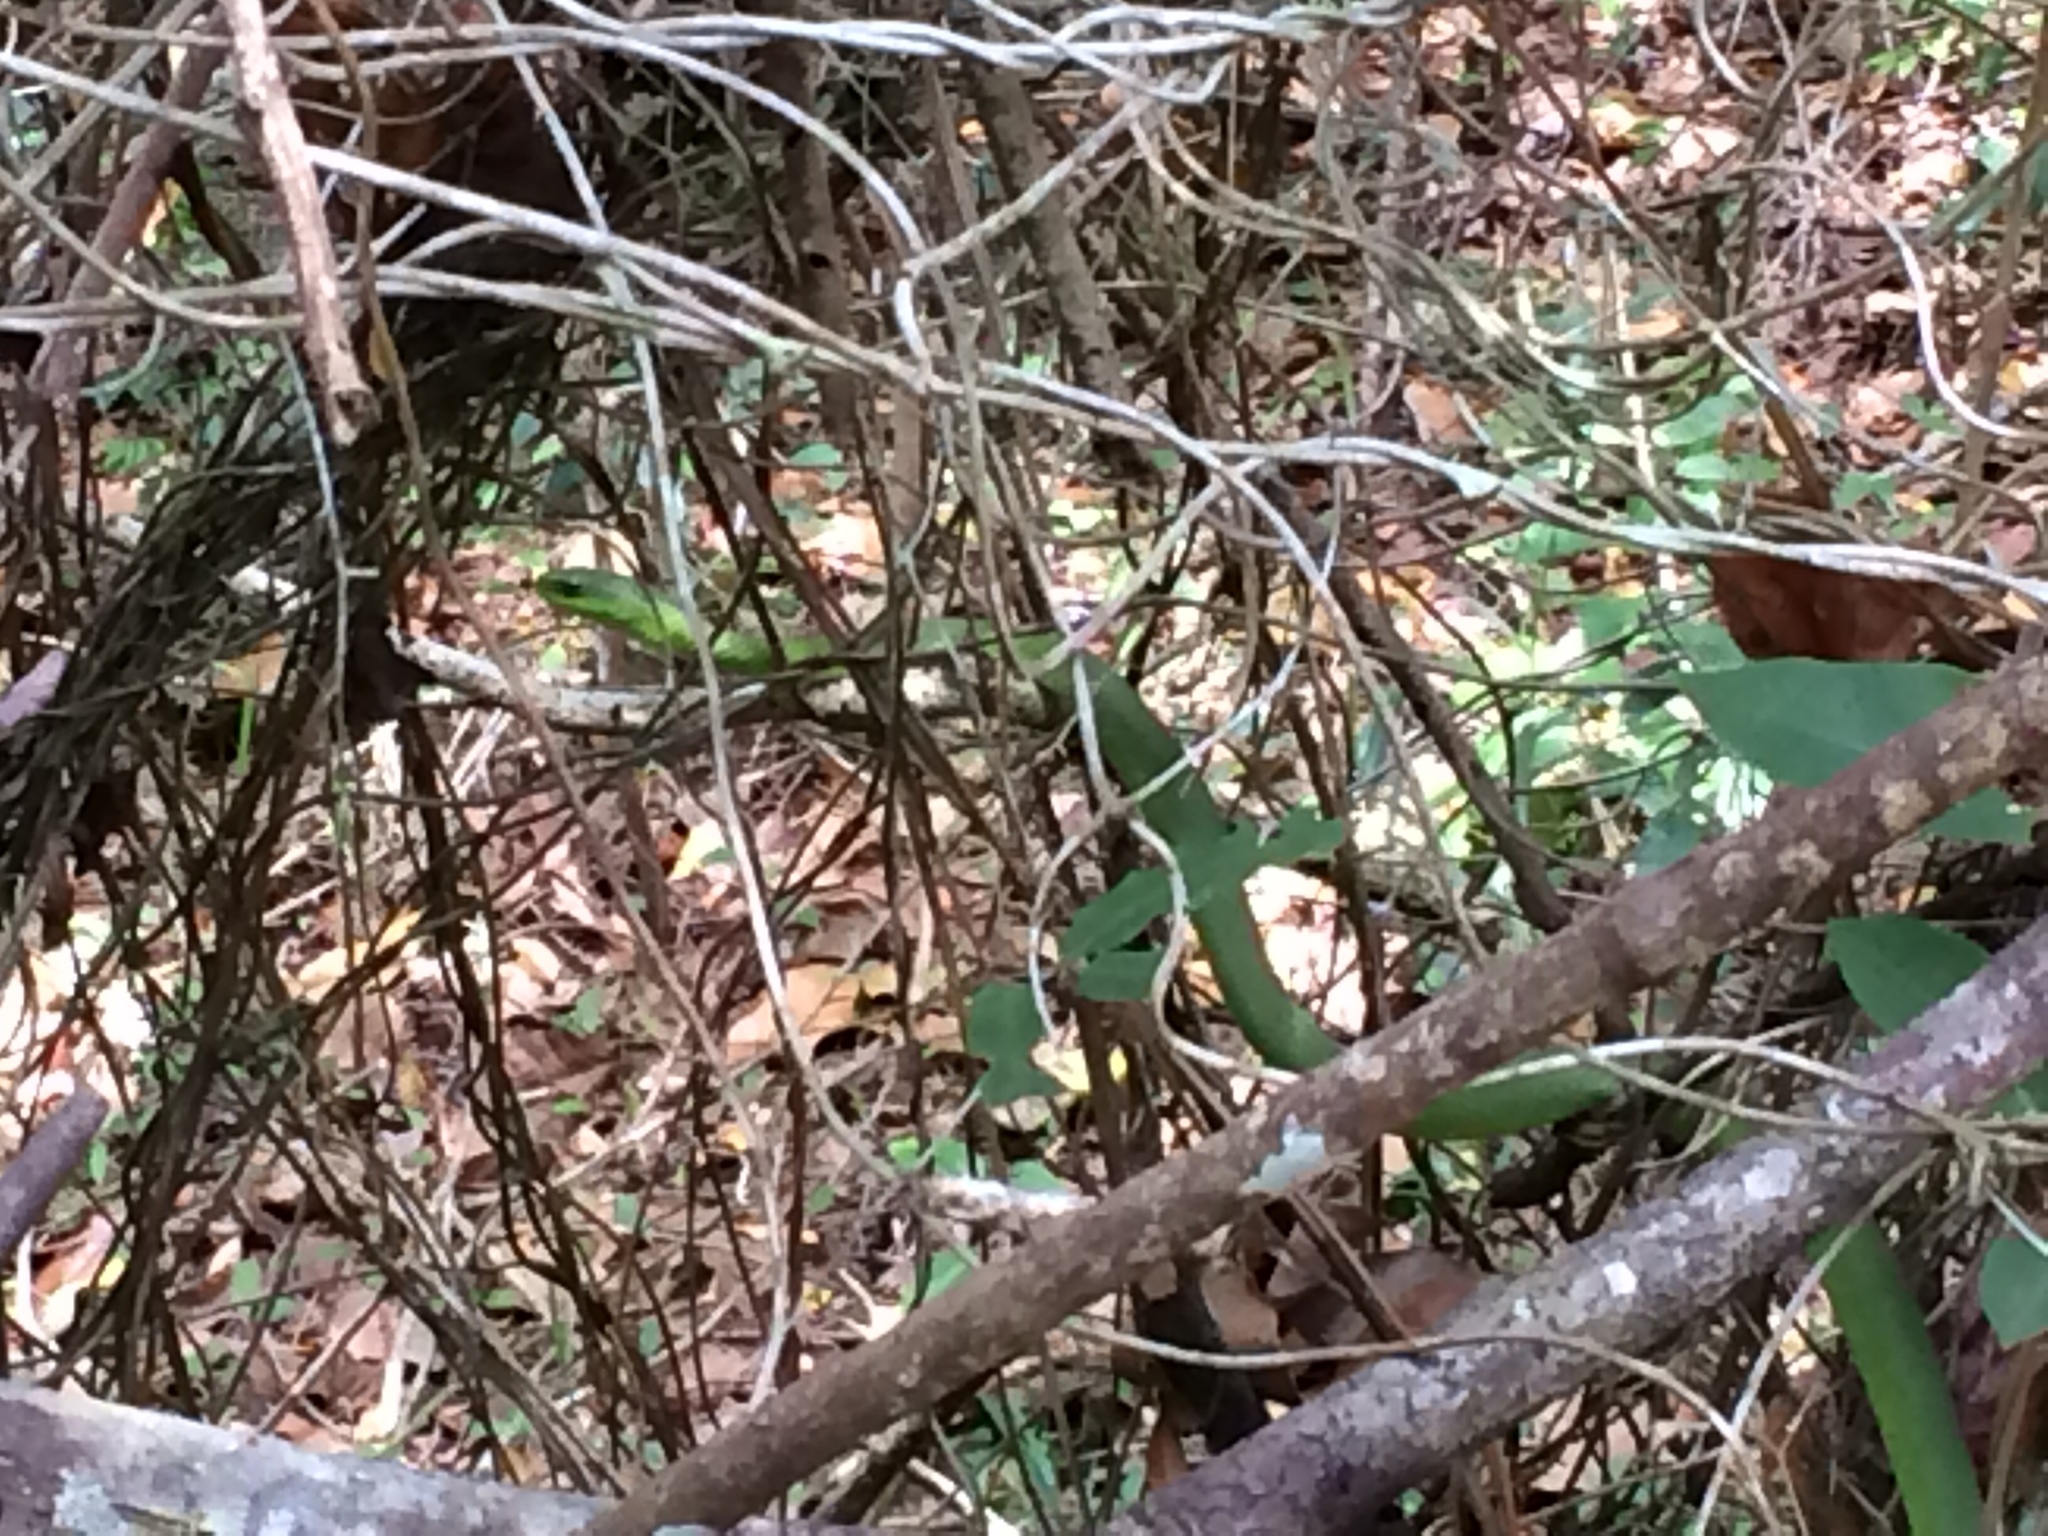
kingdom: Animalia
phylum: Chordata
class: Squamata
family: Colubridae
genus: Philodryas
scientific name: Philodryas olfersii
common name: Lichtenstein's green racer
